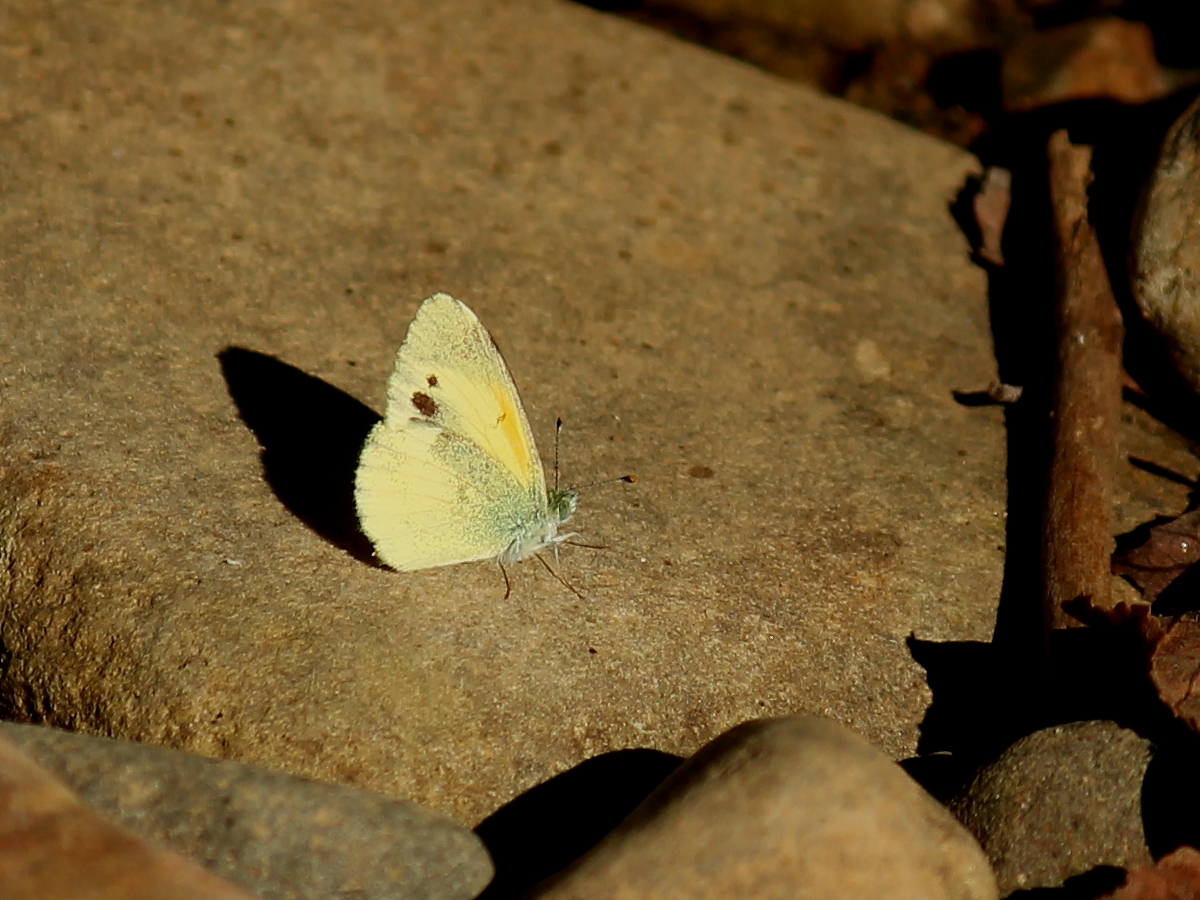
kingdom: Animalia
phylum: Arthropoda
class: Insecta
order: Lepidoptera
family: Pieridae
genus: Nathalis
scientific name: Nathalis iole
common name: Dainty sulphur
